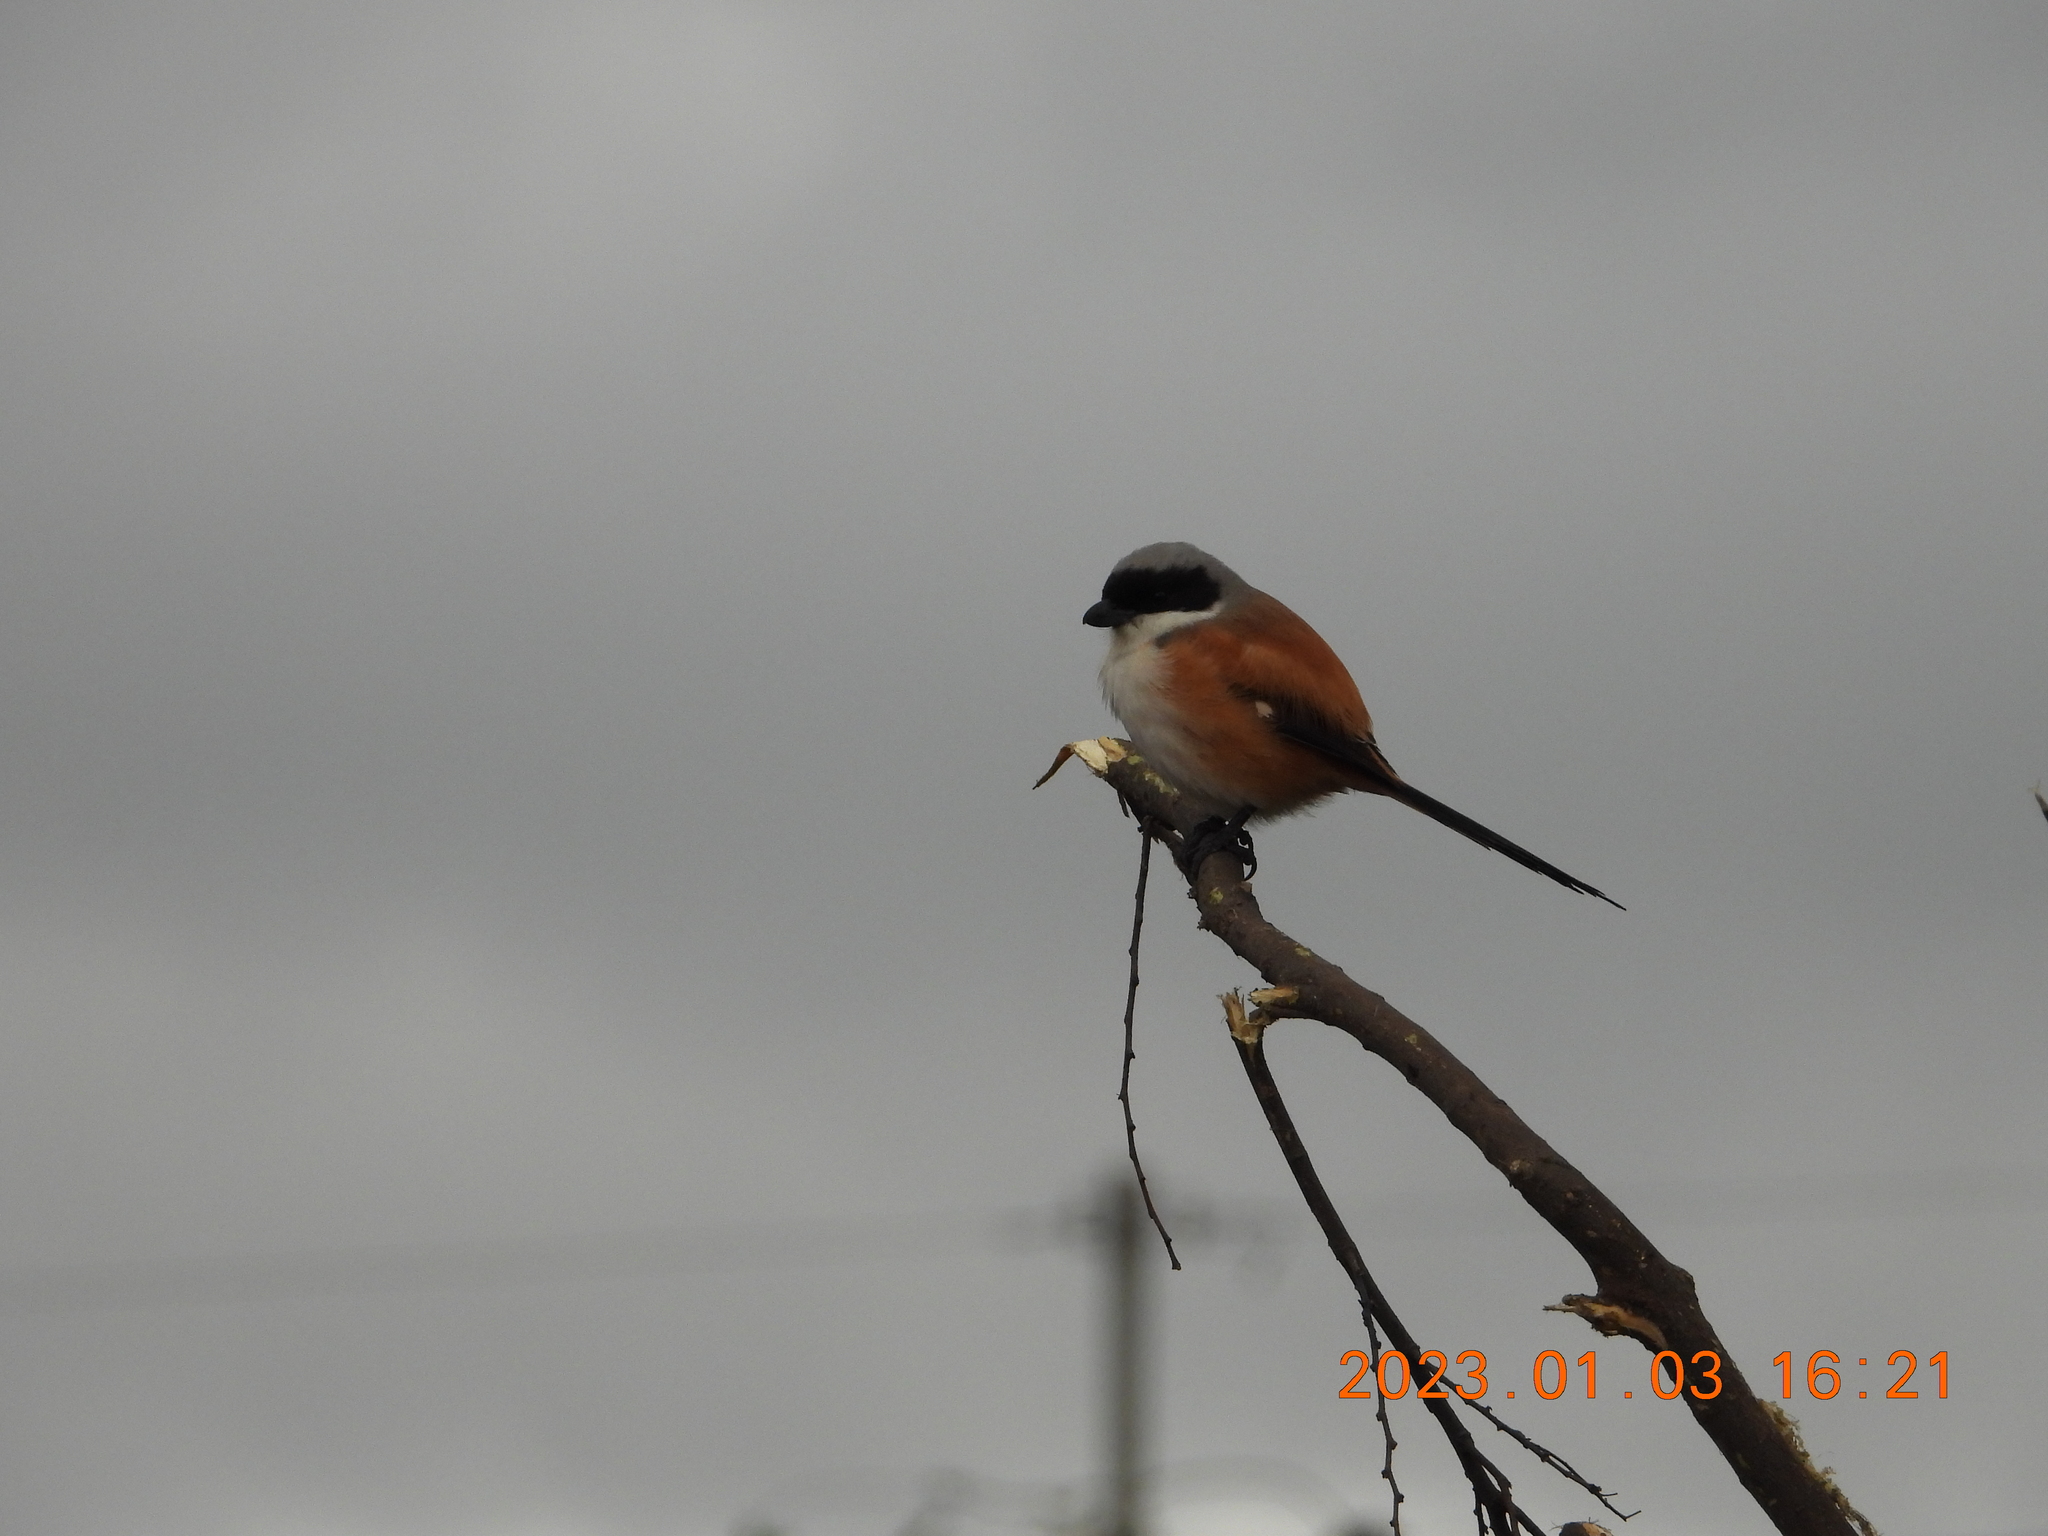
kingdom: Animalia
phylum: Chordata
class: Aves
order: Passeriformes
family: Laniidae
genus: Lanius
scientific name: Lanius schach
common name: Long-tailed shrike
